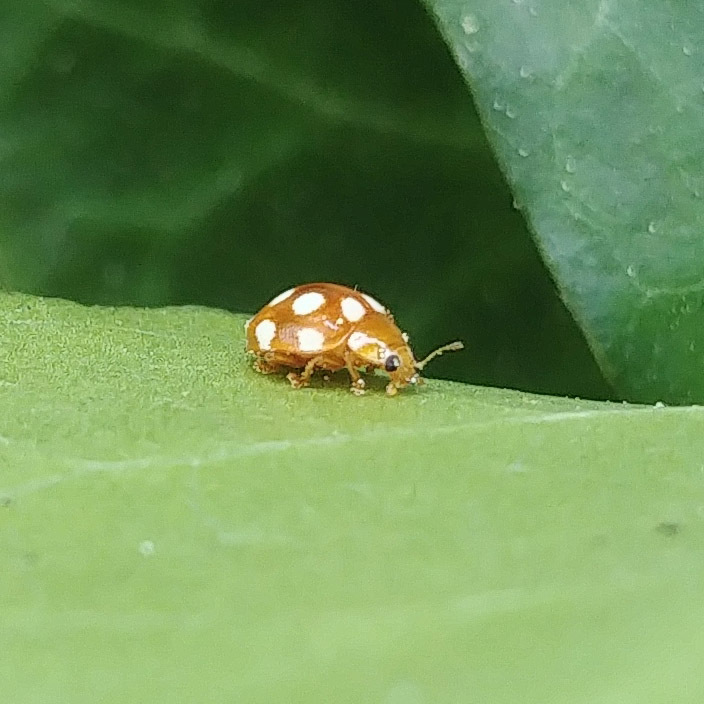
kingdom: Animalia
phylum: Arthropoda
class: Insecta
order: Coleoptera
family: Coccinellidae
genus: Vibidia
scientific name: Vibidia duodecimguttata
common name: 12-spot ladybird
